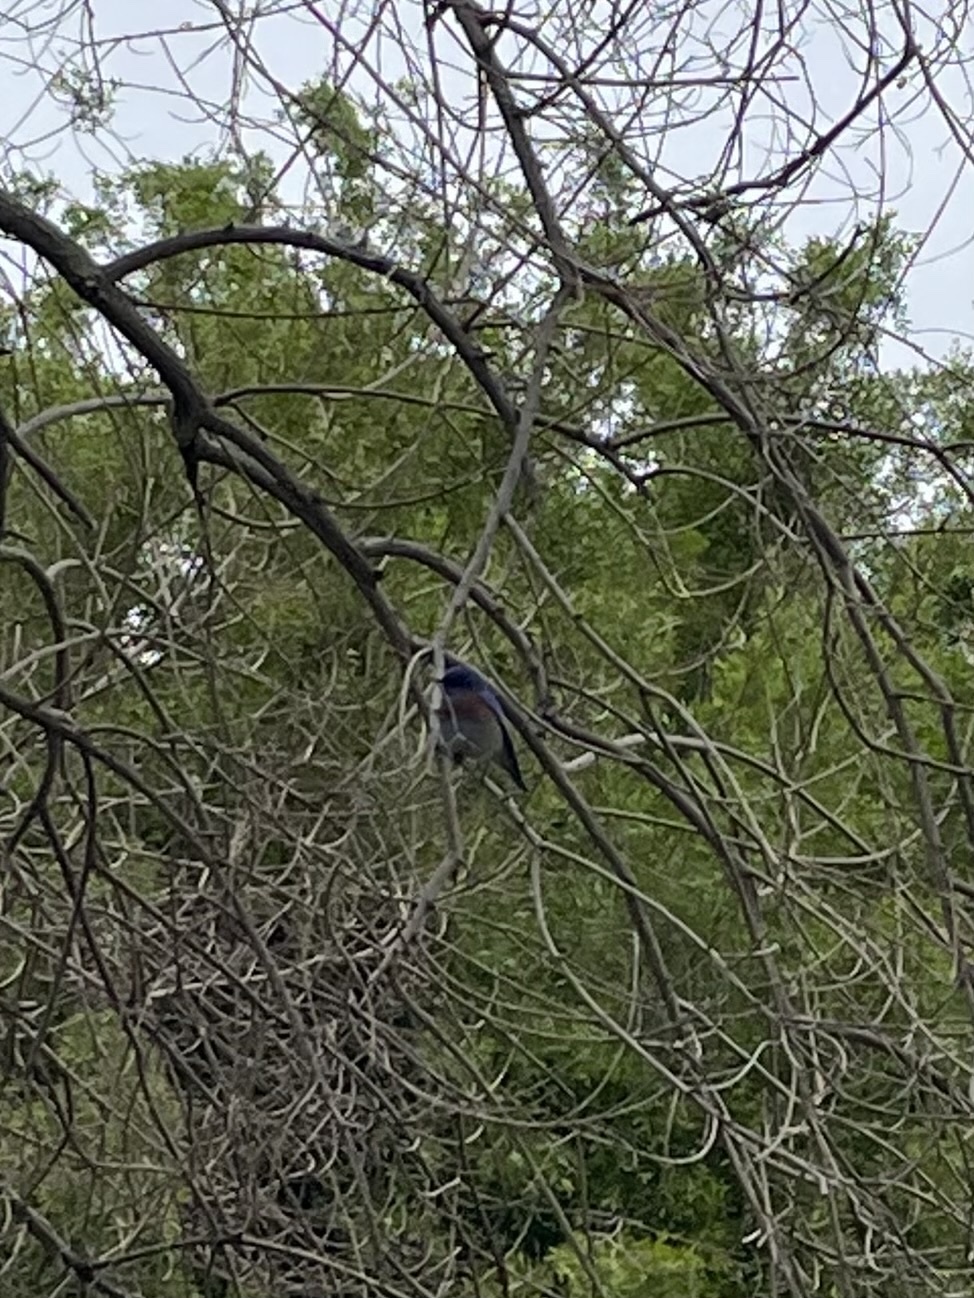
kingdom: Animalia
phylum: Chordata
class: Aves
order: Passeriformes
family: Turdidae
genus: Sialia
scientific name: Sialia mexicana
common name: Western bluebird
